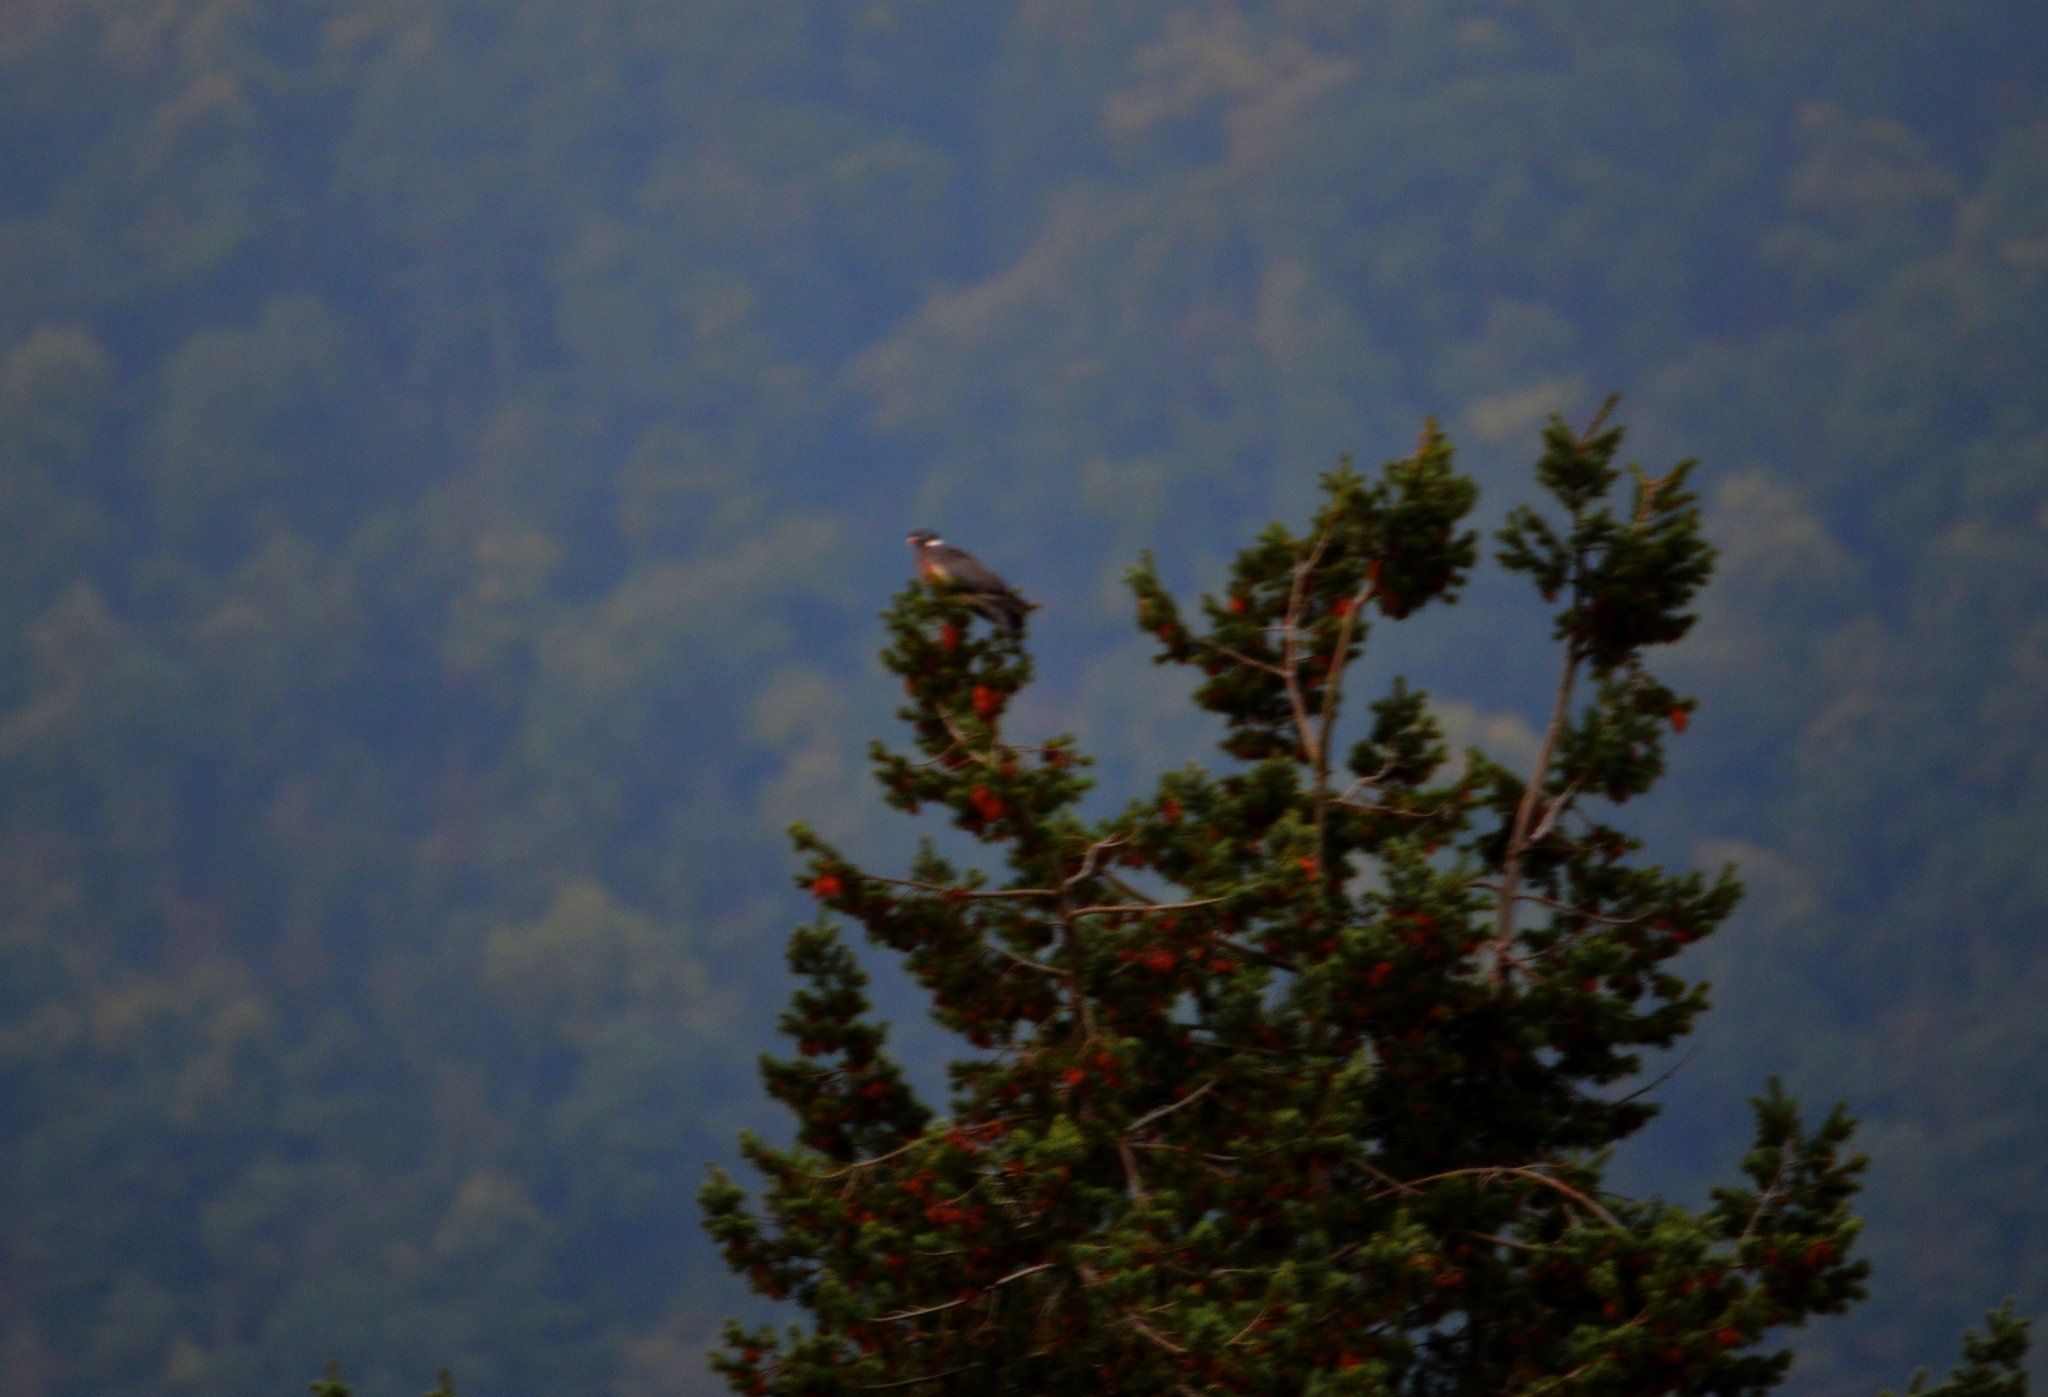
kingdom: Animalia
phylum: Chordata
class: Aves
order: Columbiformes
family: Columbidae
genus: Columba
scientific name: Columba palumbus
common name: Common wood pigeon
